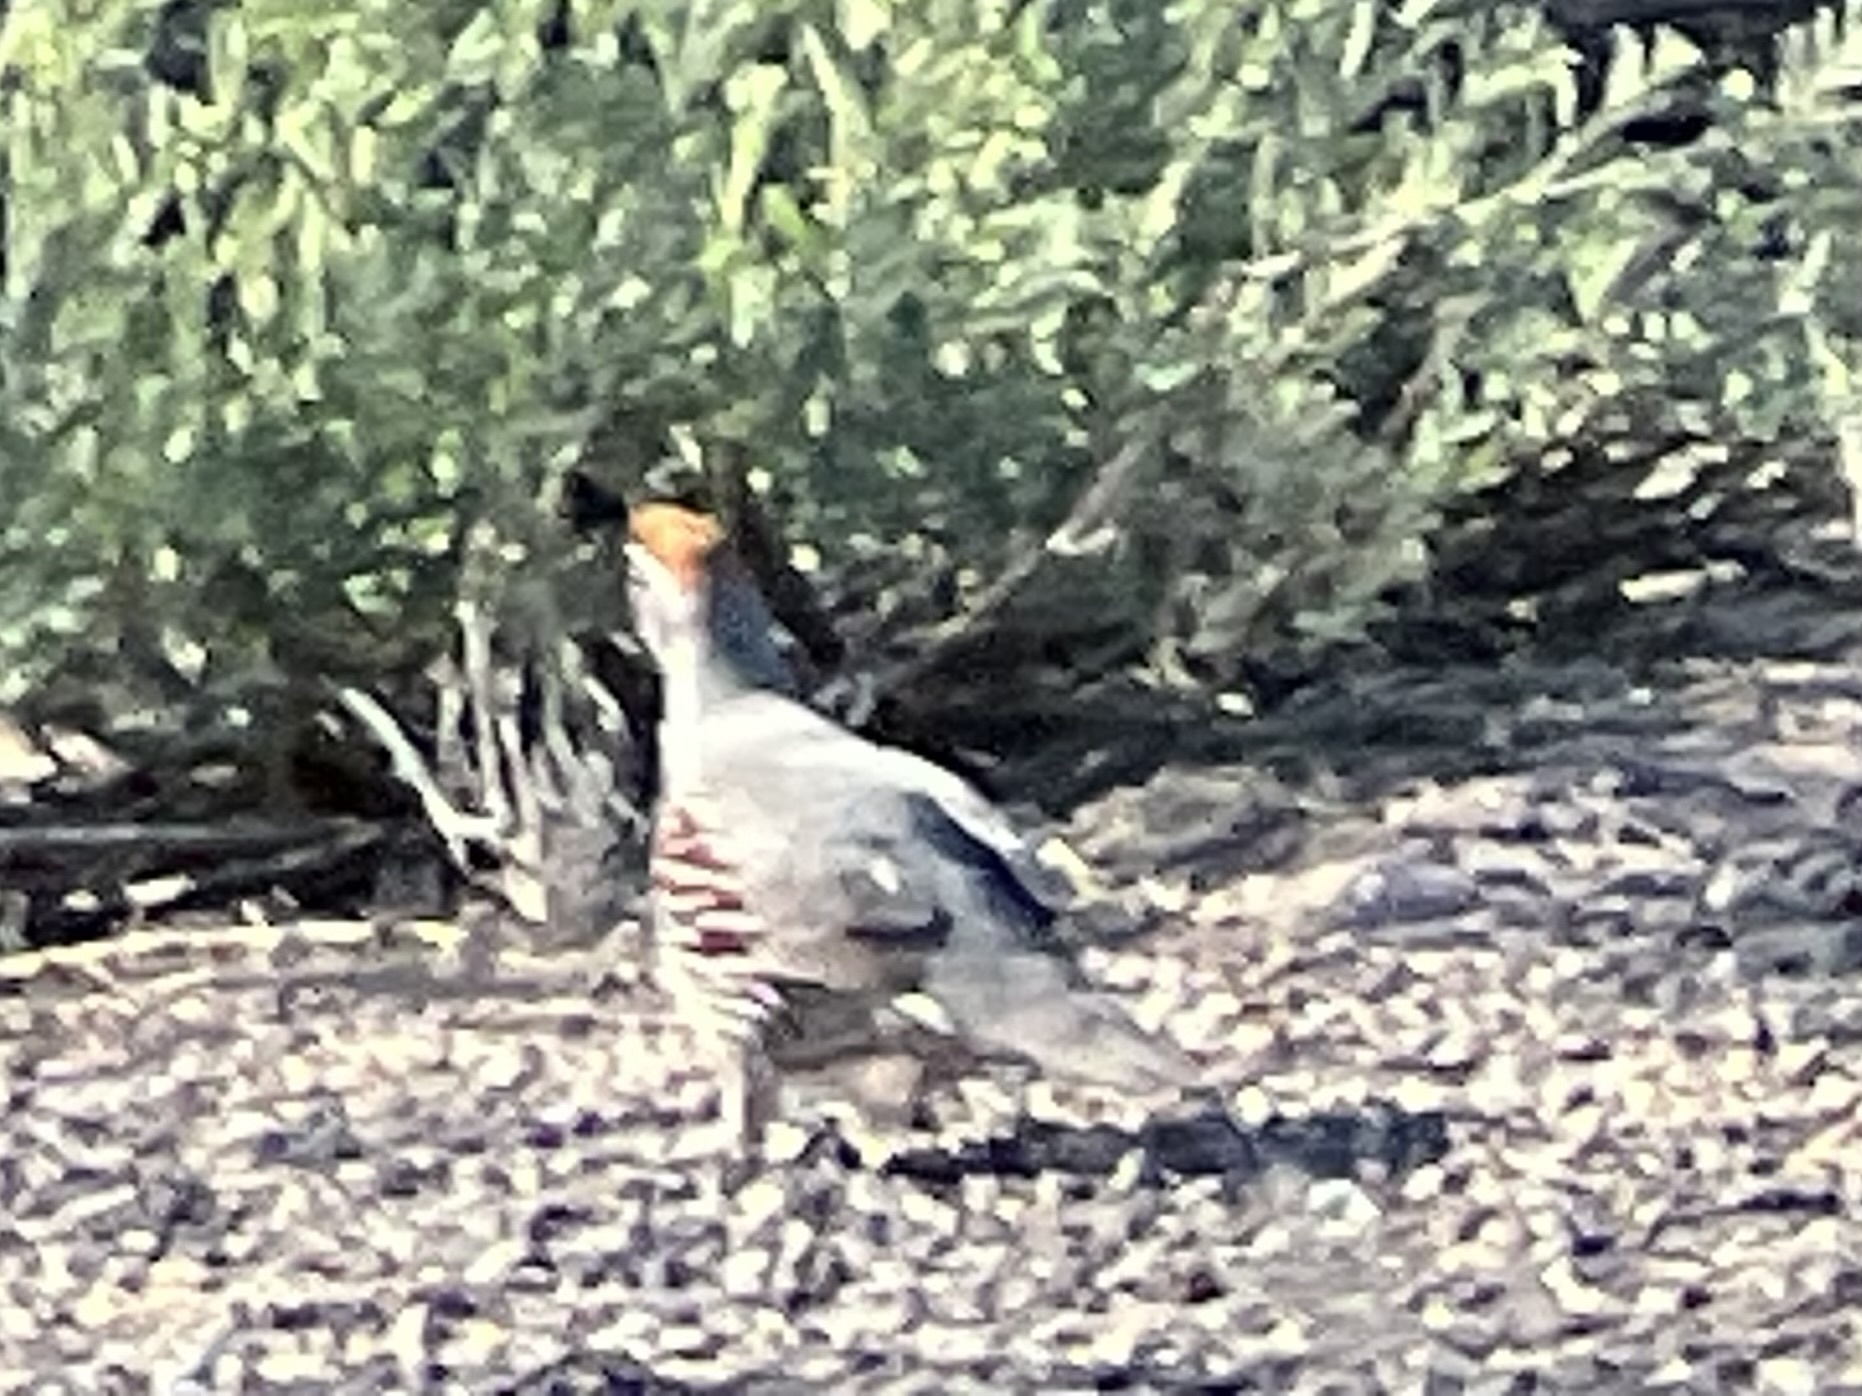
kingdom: Animalia
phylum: Chordata
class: Aves
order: Galliformes
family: Odontophoridae
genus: Callipepla
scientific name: Callipepla gambelii
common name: Gambel's quail
